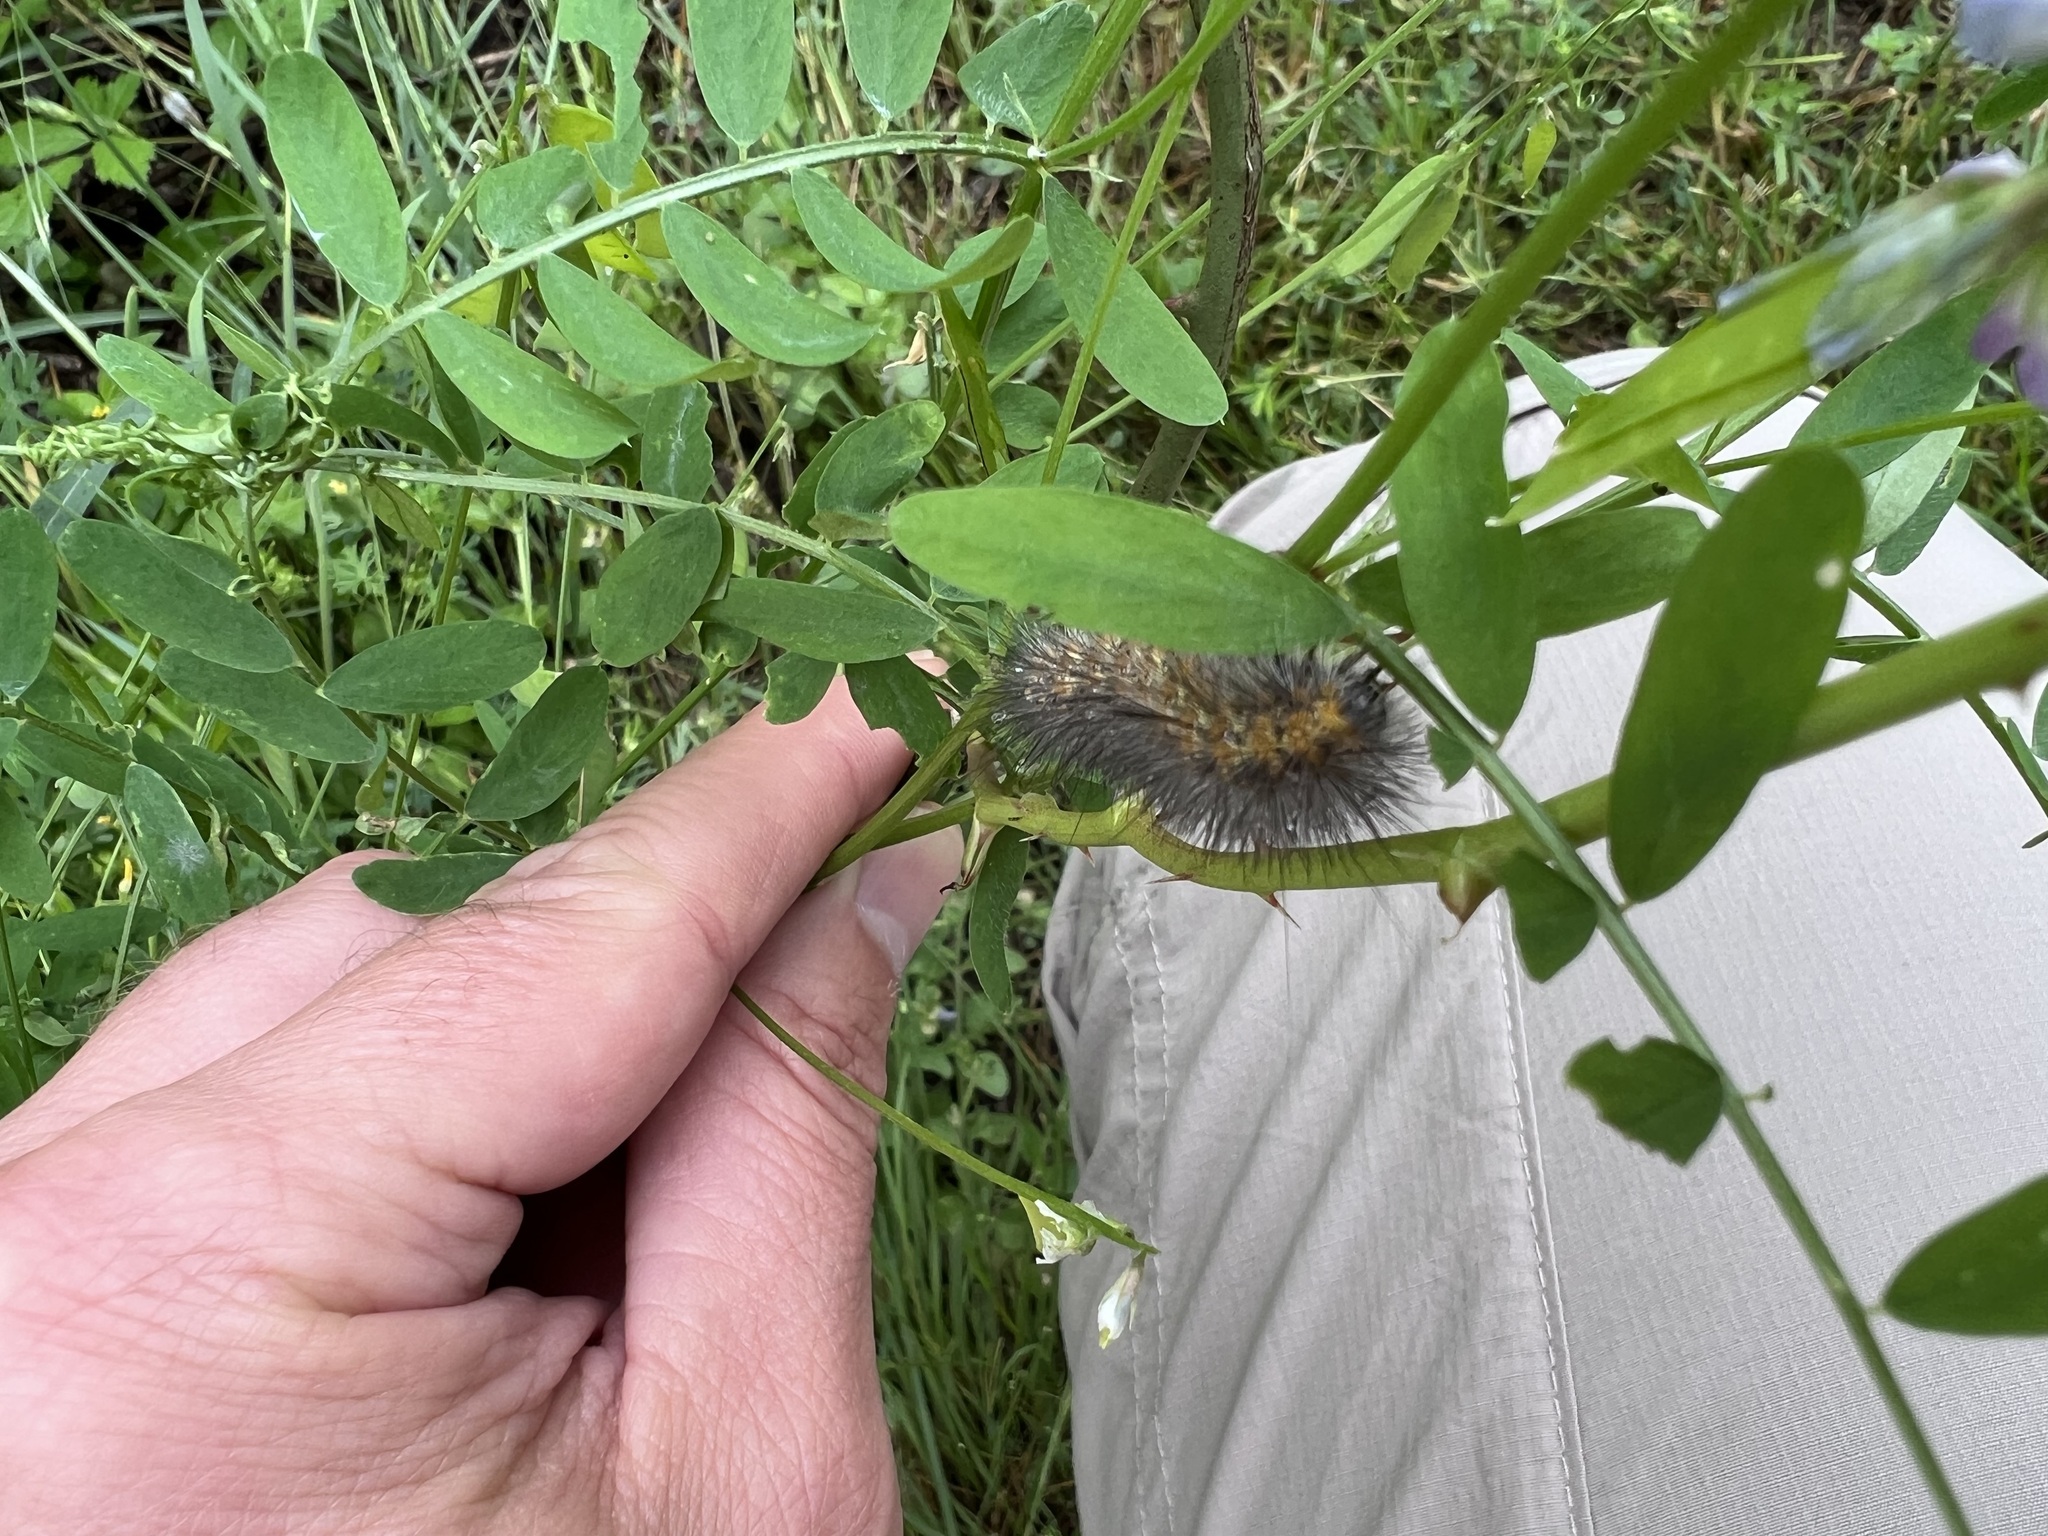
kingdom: Animalia
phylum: Arthropoda
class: Insecta
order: Lepidoptera
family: Erebidae
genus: Estigmene
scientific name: Estigmene acrea
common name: Salt marsh moth
